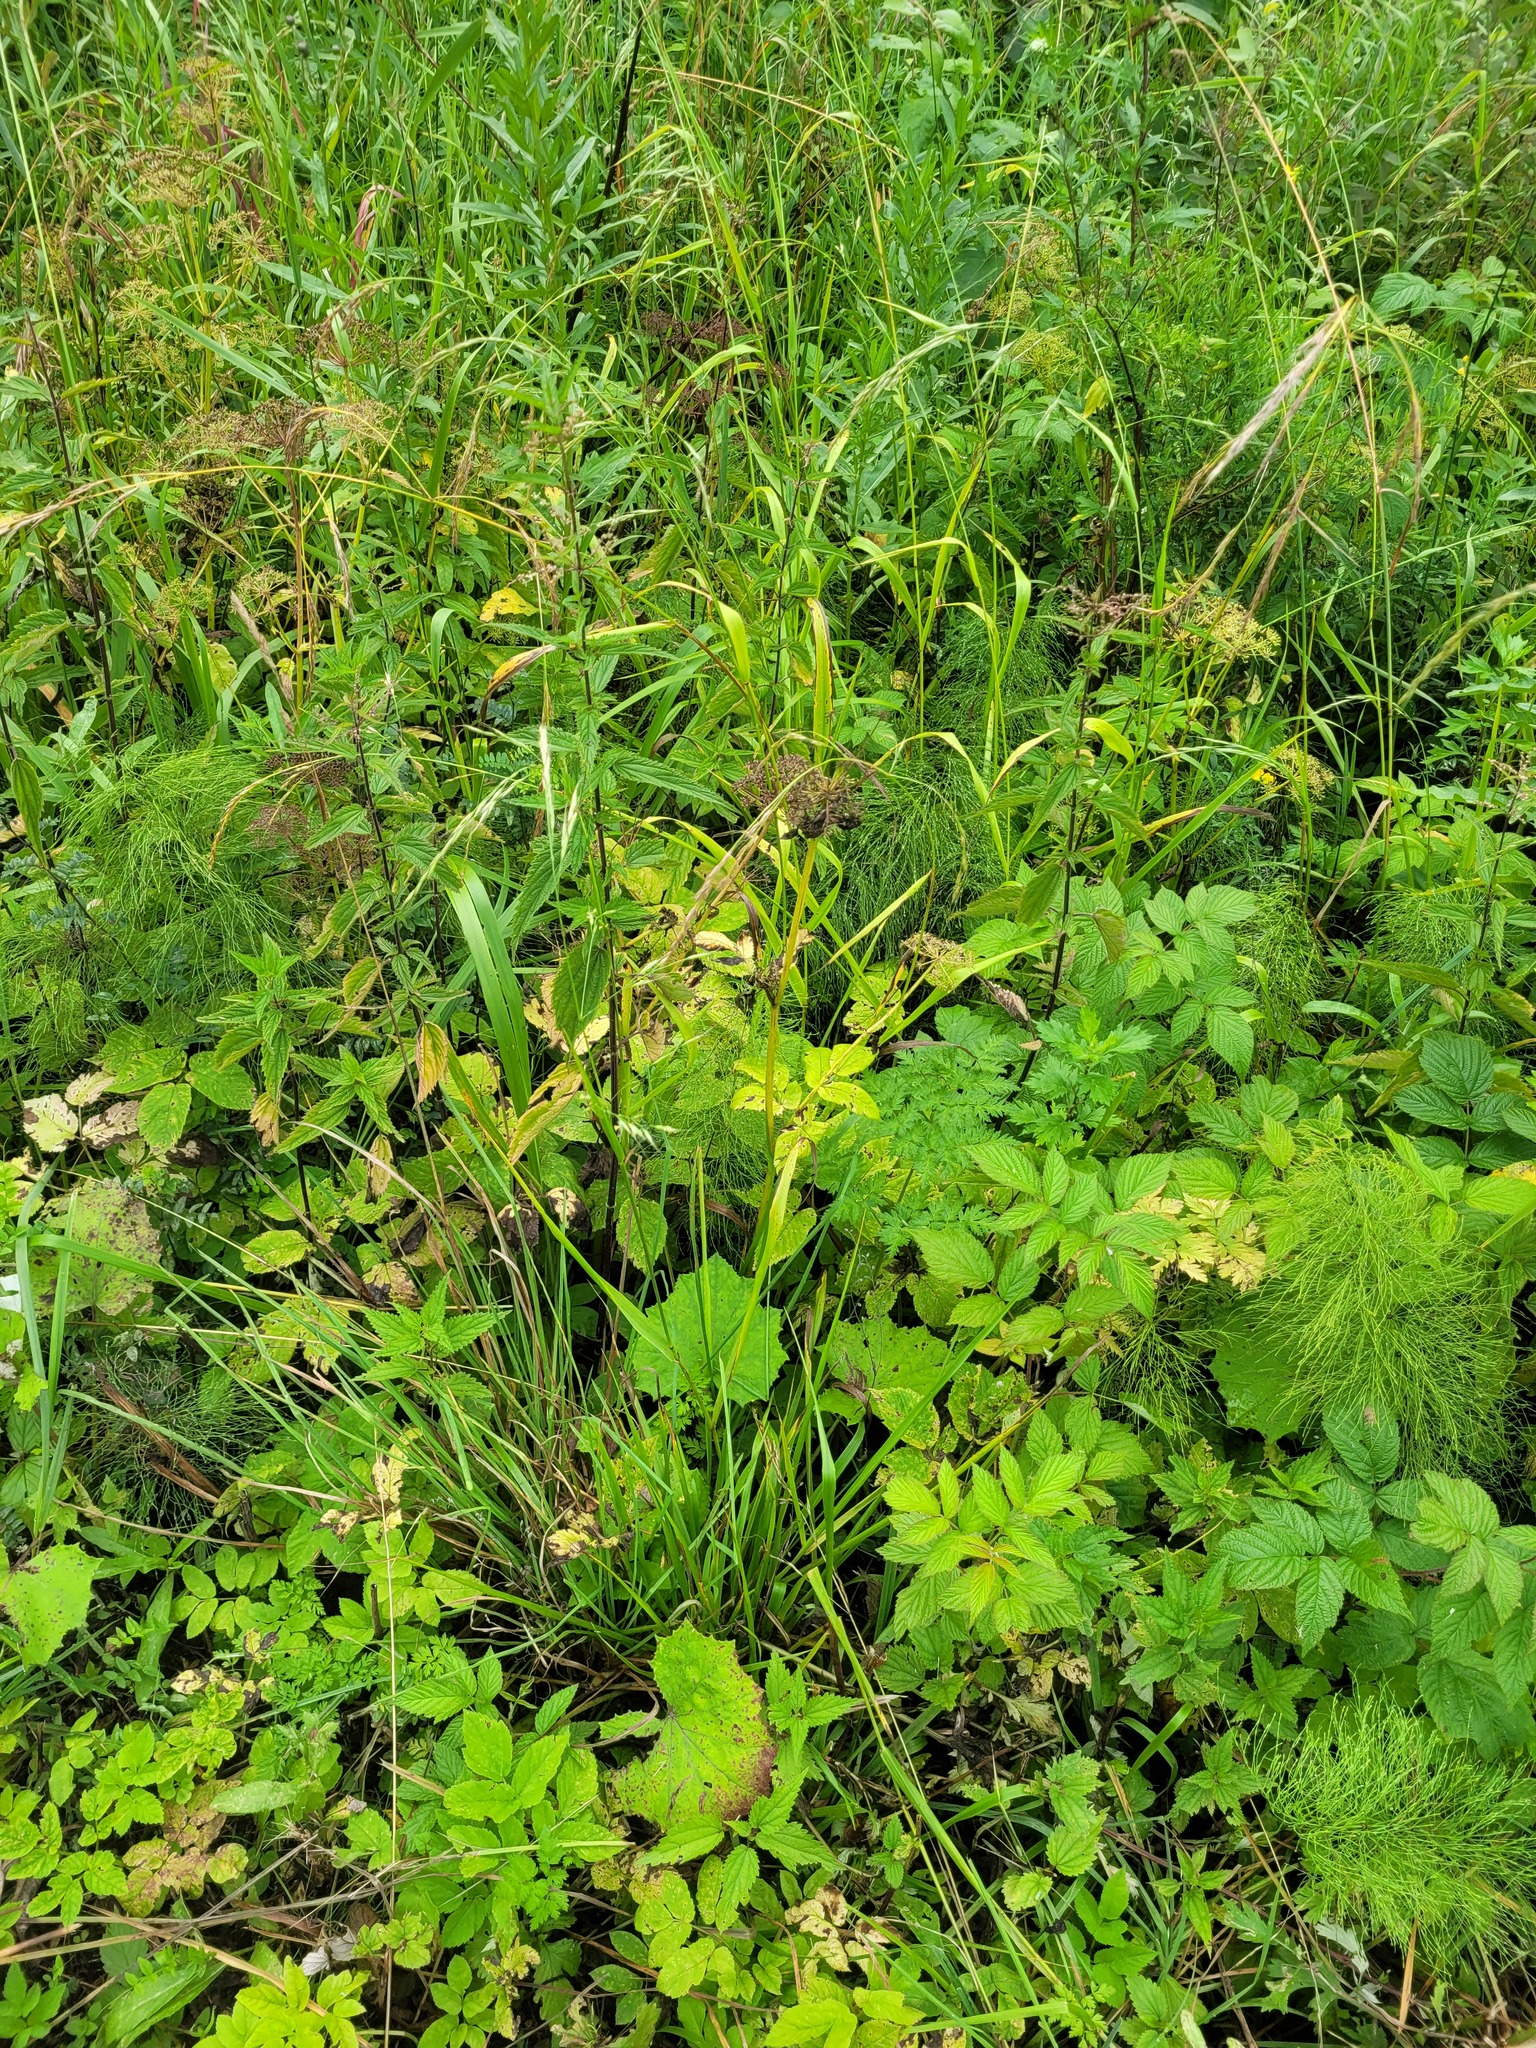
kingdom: Plantae
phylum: Tracheophyta
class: Liliopsida
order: Poales
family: Poaceae
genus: Lolium
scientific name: Lolium giganteum
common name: Giant fescue
